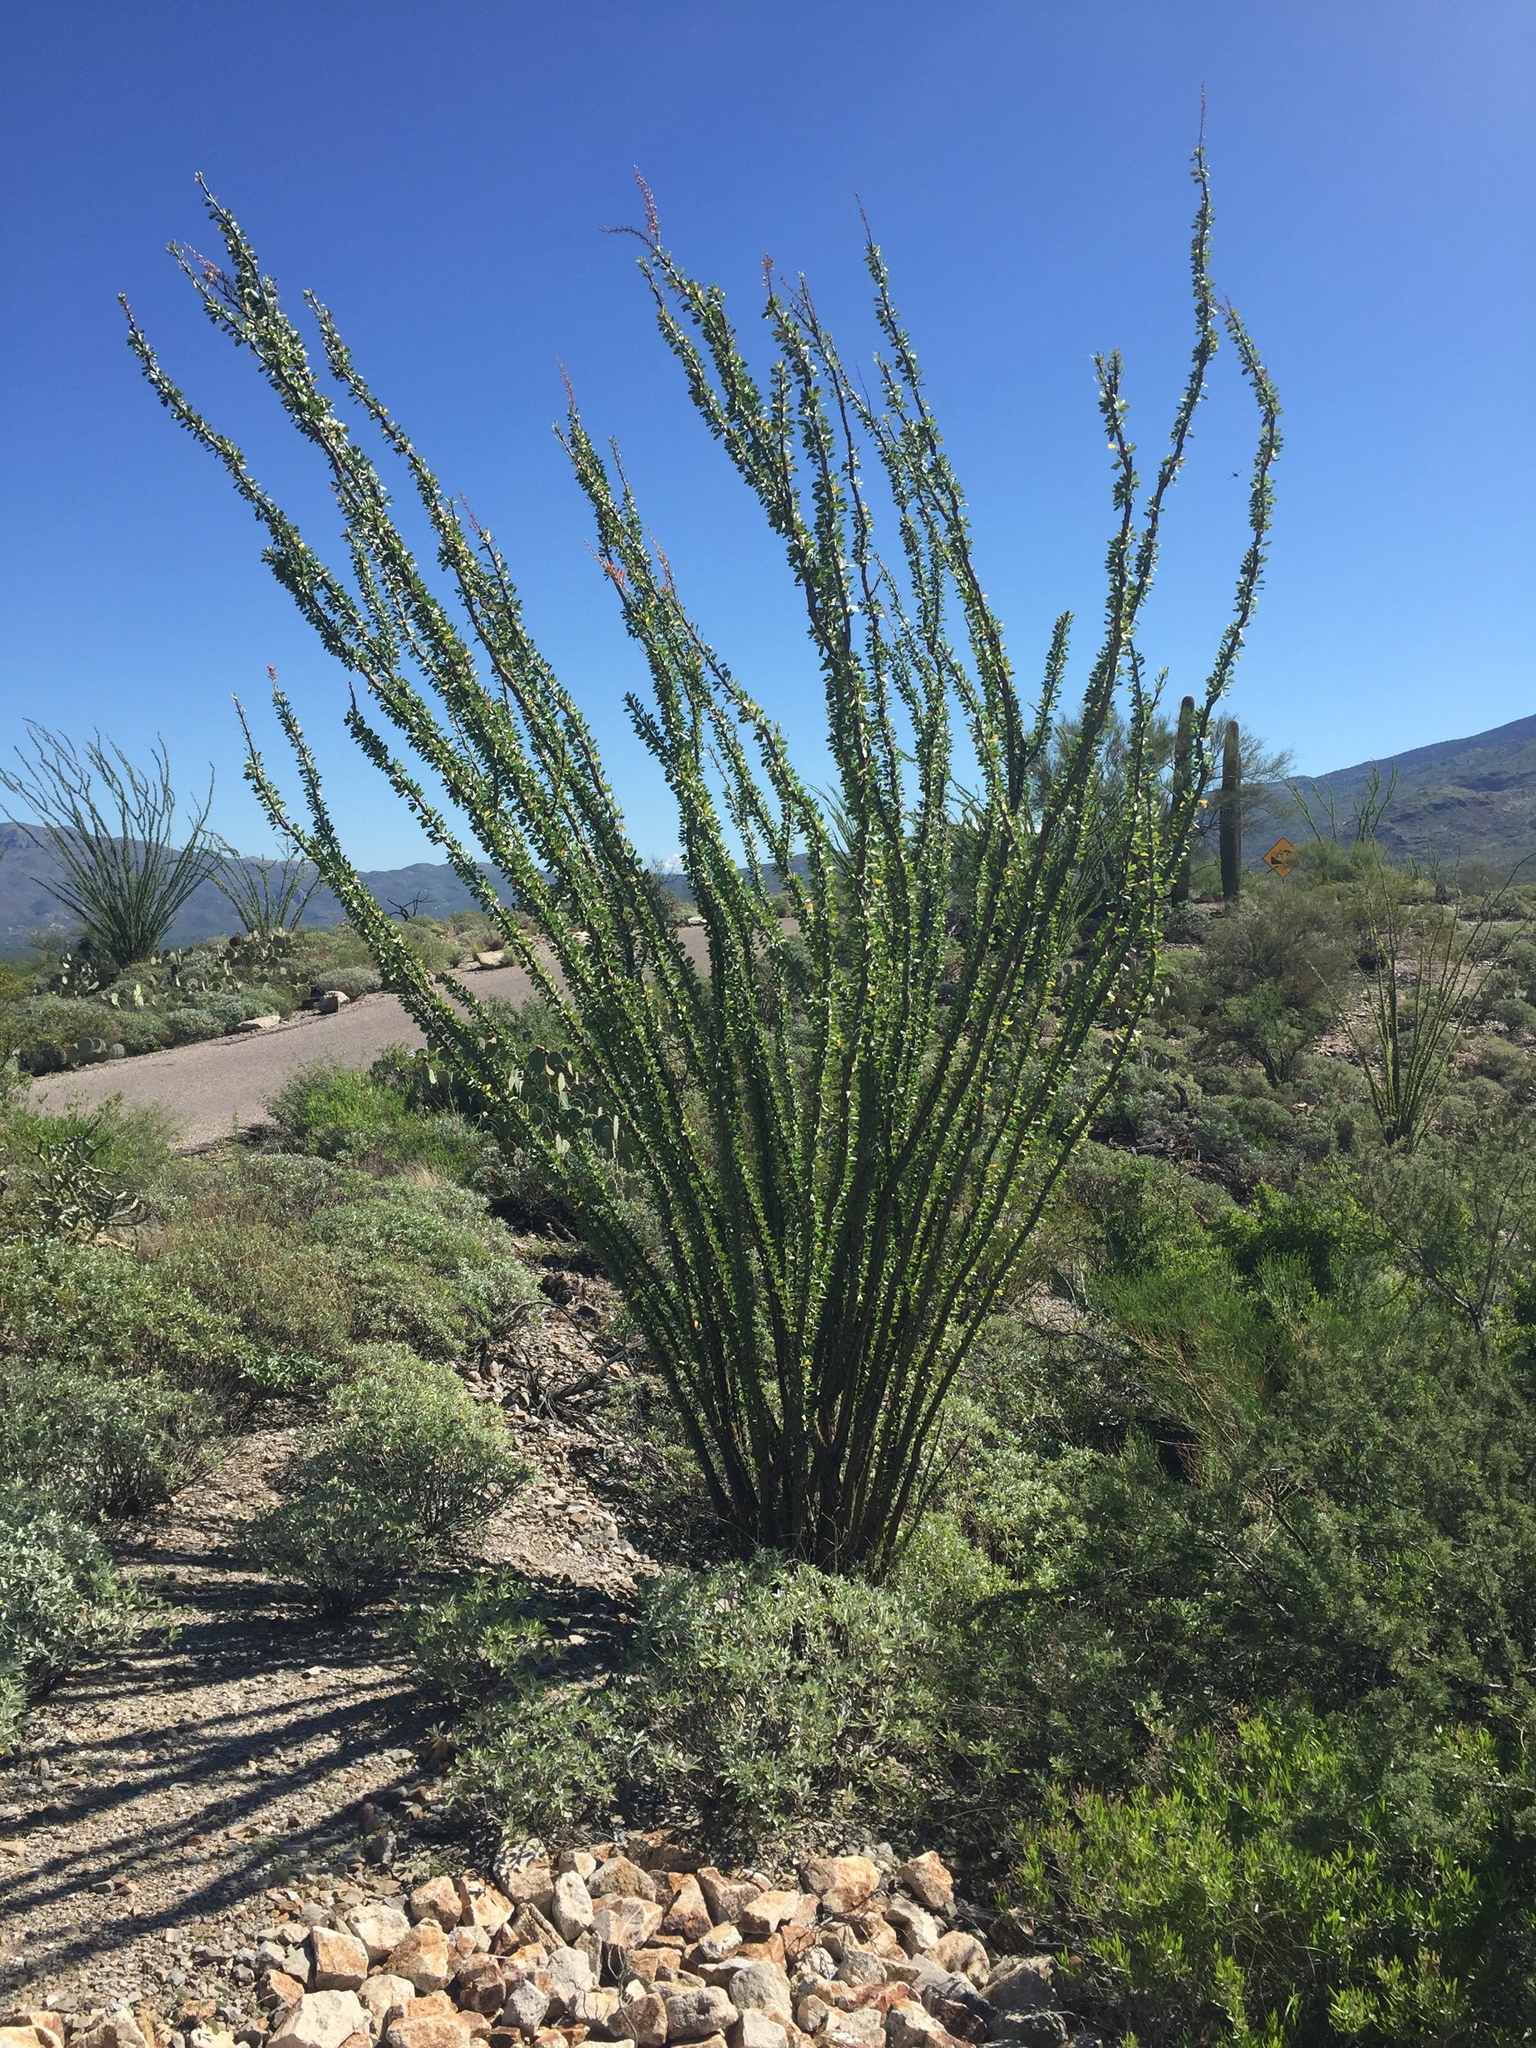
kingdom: Plantae
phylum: Tracheophyta
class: Magnoliopsida
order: Ericales
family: Fouquieriaceae
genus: Fouquieria
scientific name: Fouquieria splendens
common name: Vine-cactus
